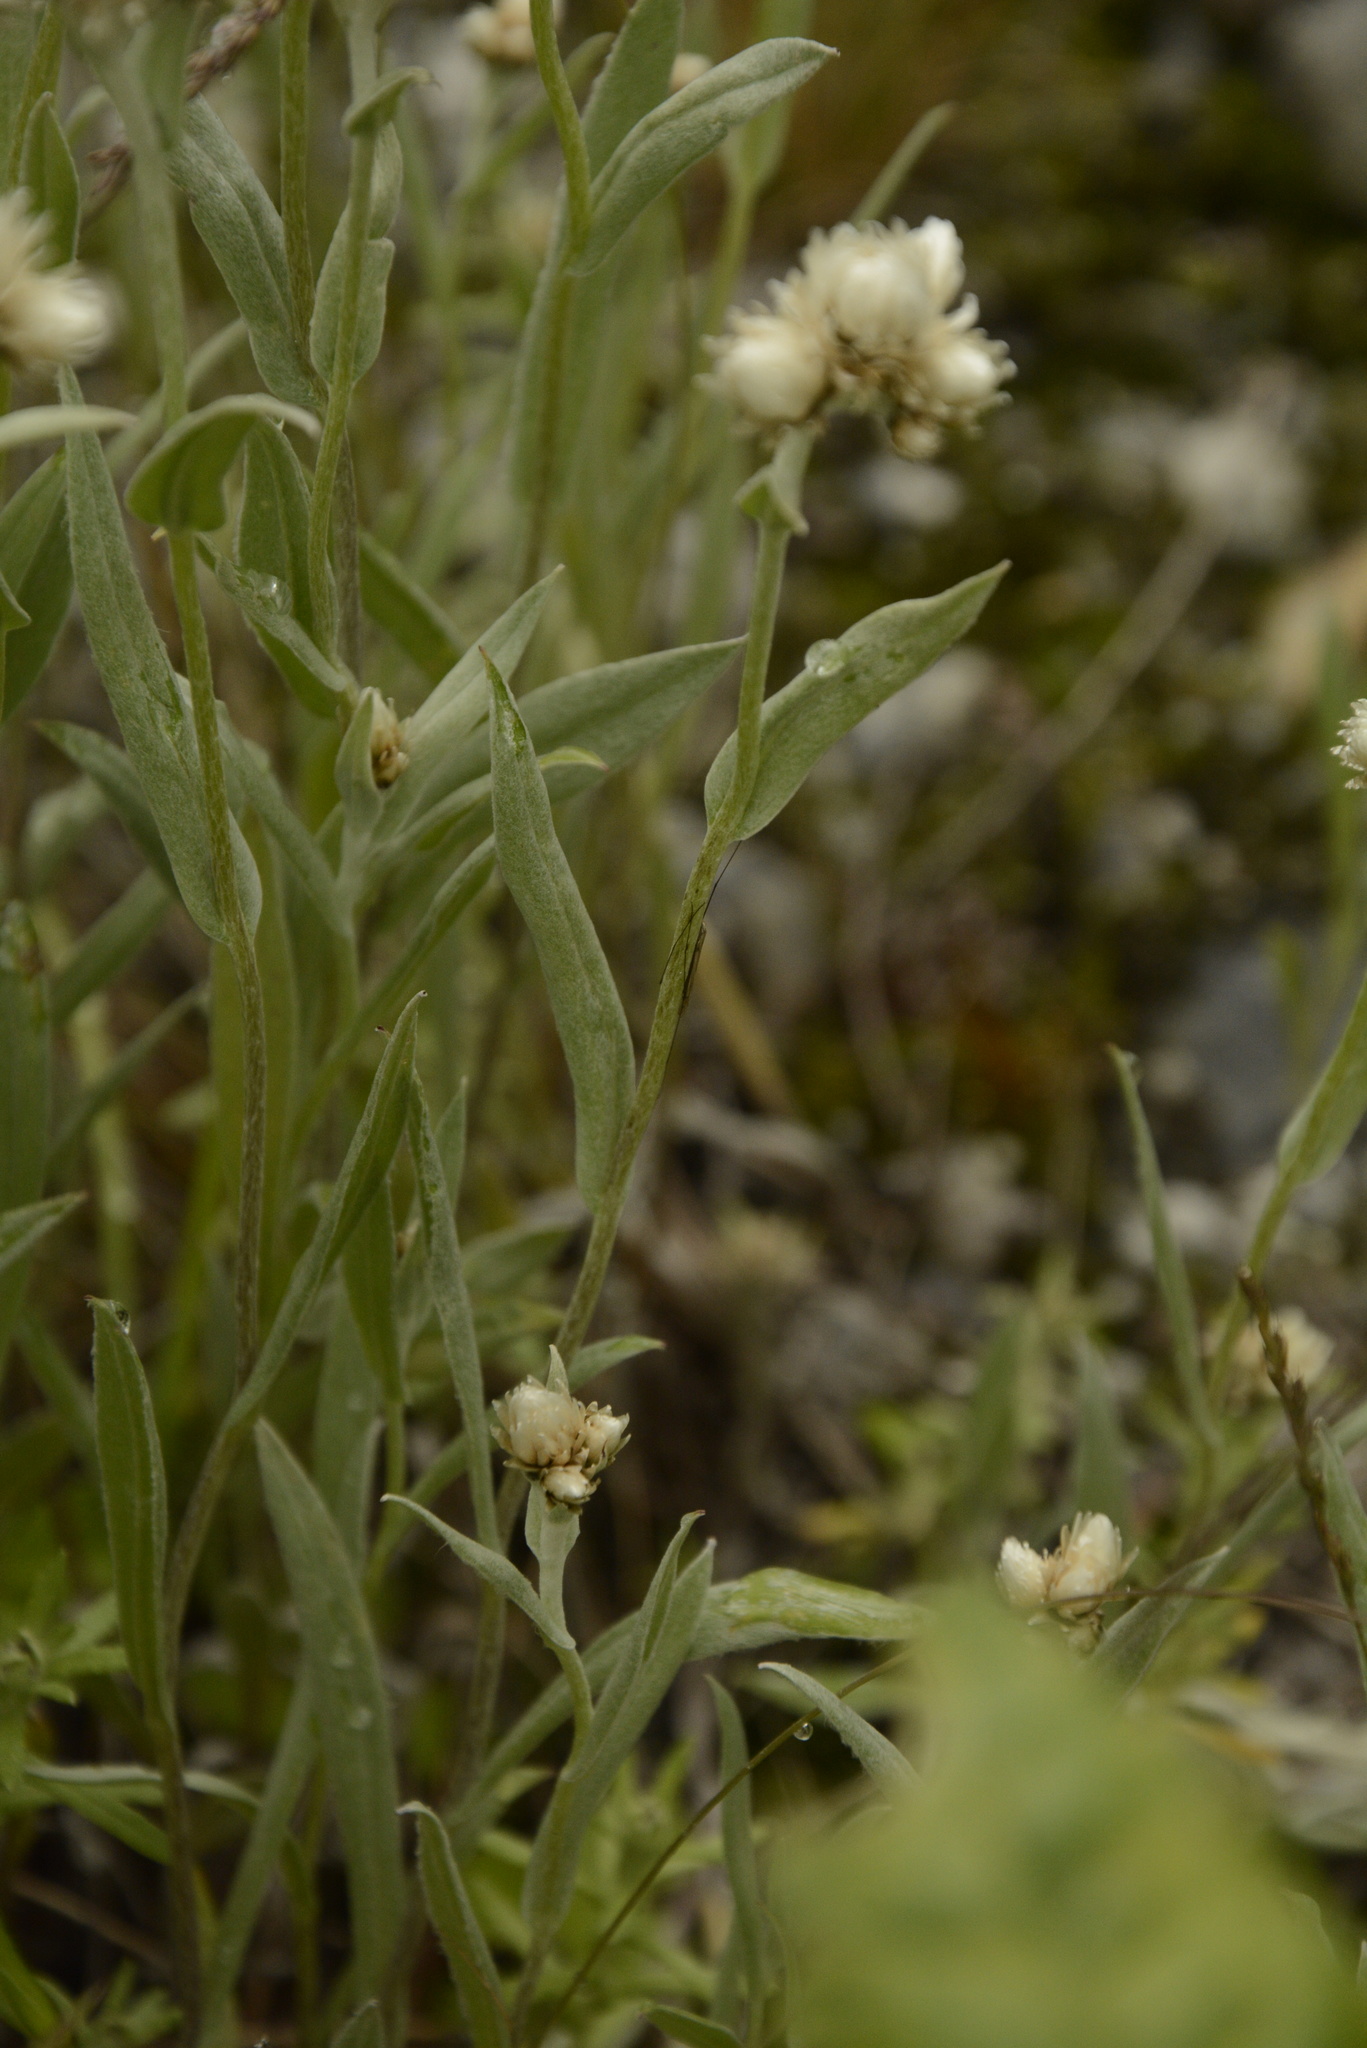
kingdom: Plantae
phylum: Tracheophyta
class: Magnoliopsida
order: Asterales
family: Asteraceae
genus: Anaphalis
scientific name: Anaphalis royleana
